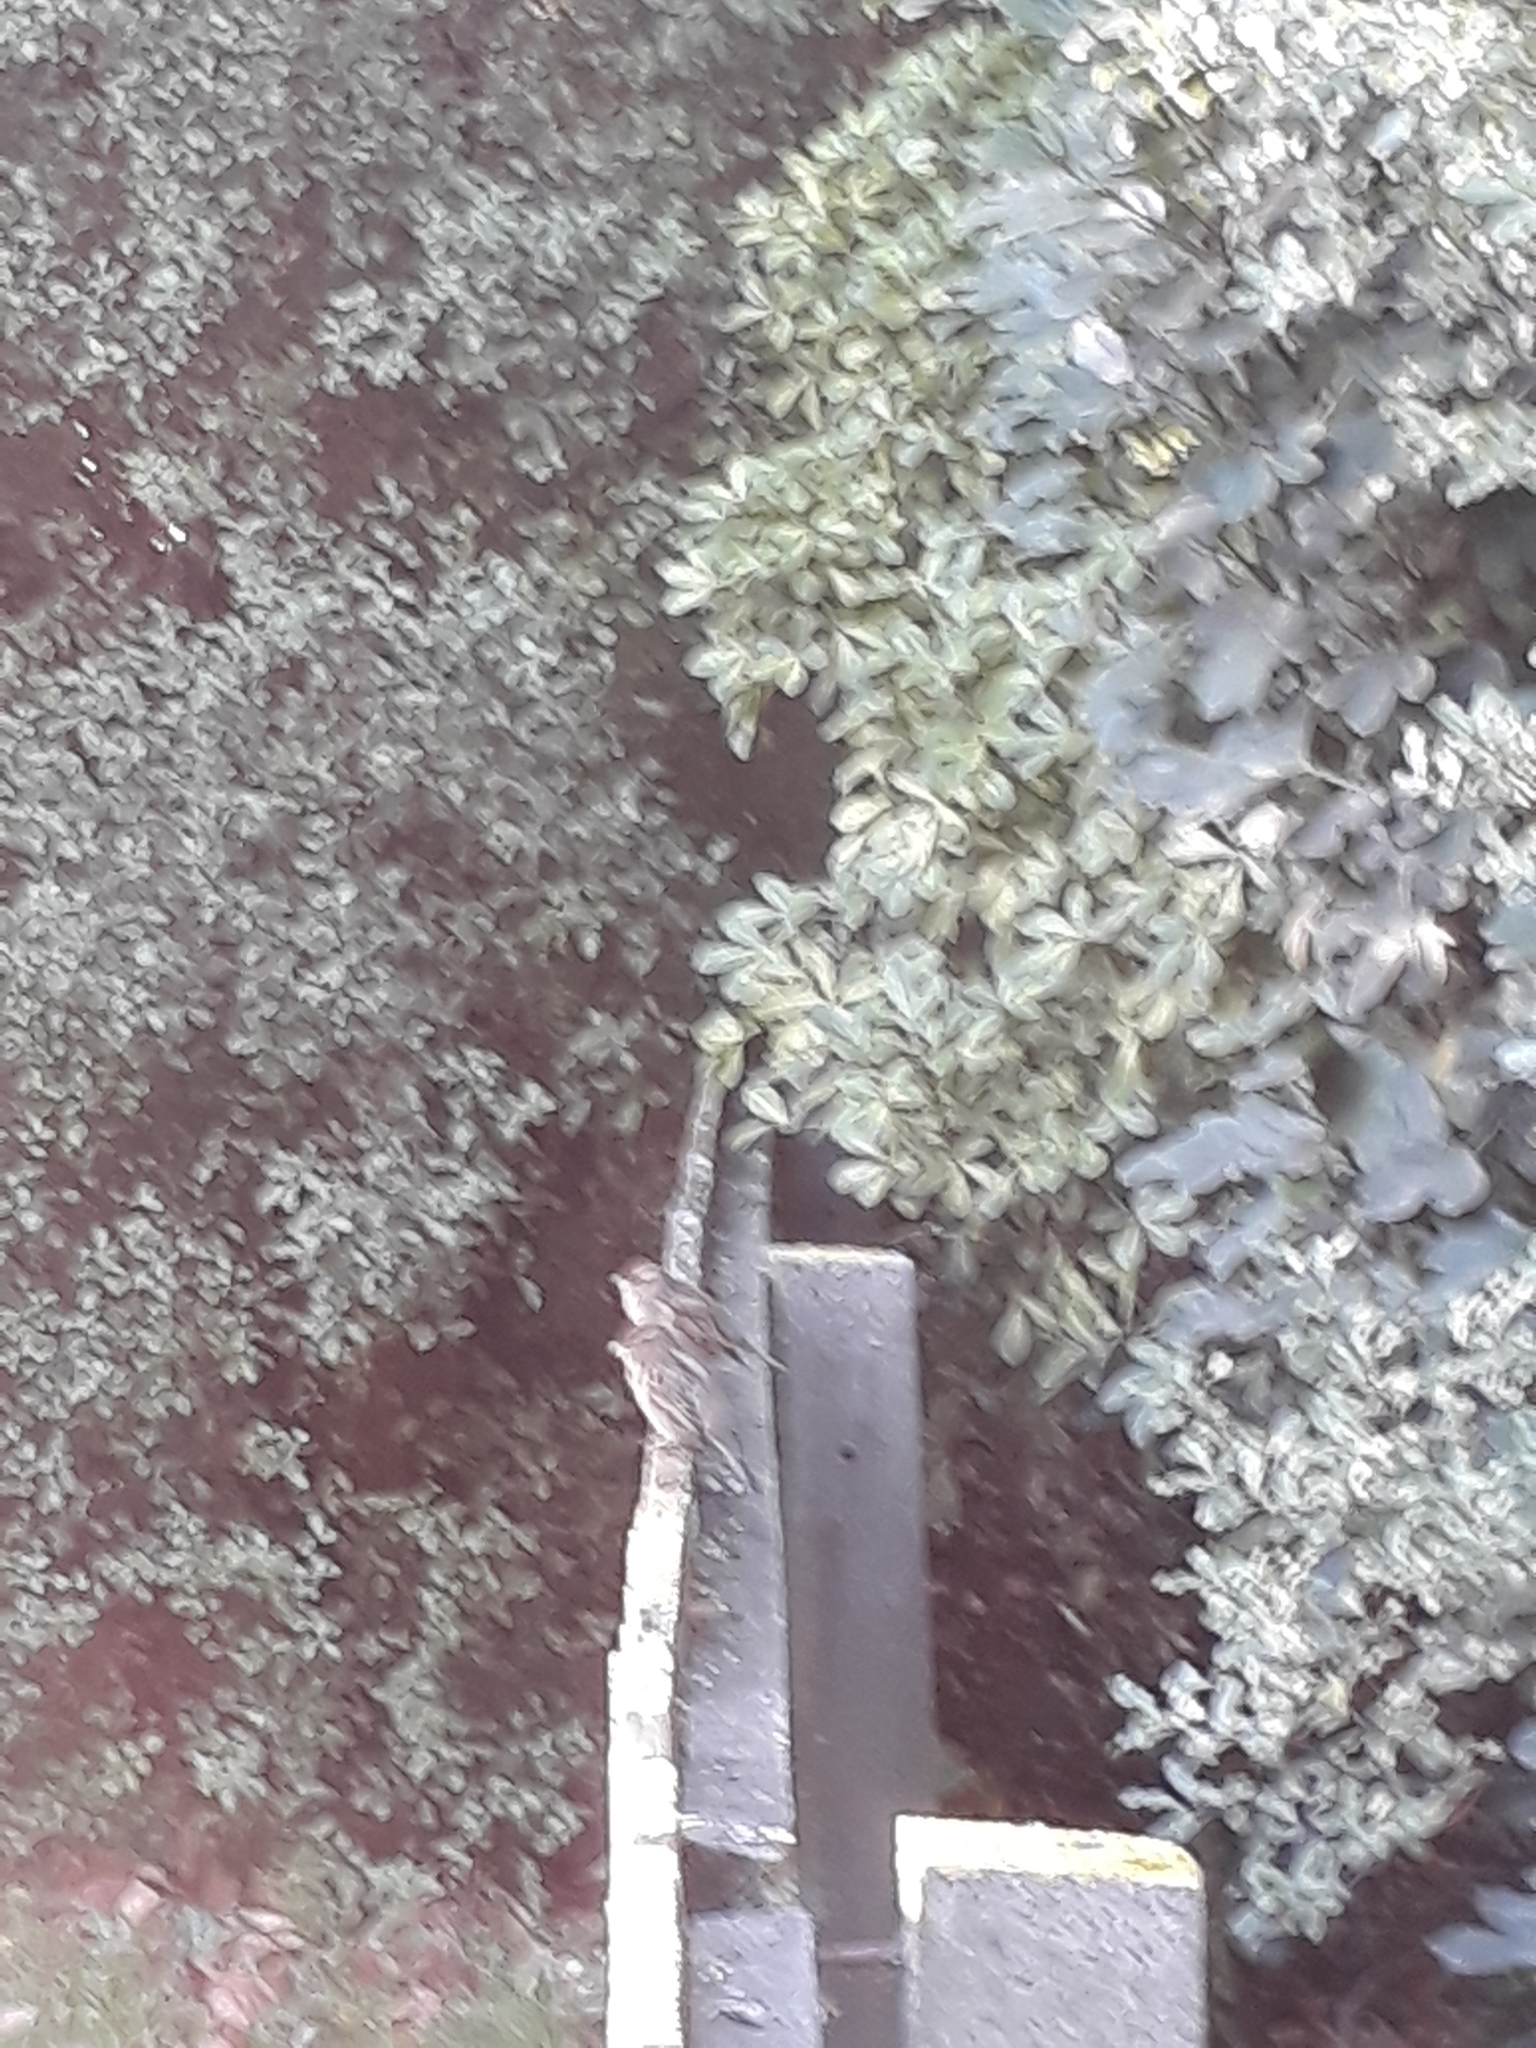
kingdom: Animalia
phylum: Chordata
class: Aves
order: Passeriformes
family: Passeridae
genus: Passer
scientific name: Passer domesticus
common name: House sparrow
